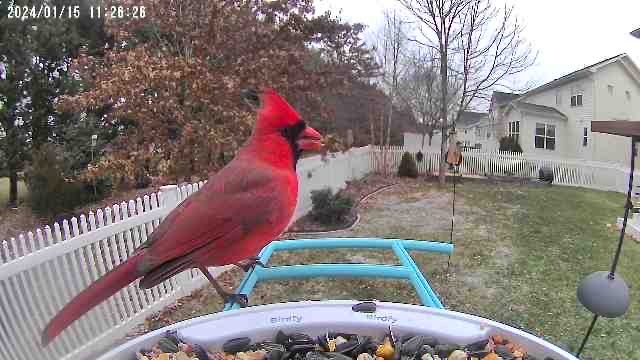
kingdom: Animalia
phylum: Chordata
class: Aves
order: Passeriformes
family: Cardinalidae
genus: Cardinalis
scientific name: Cardinalis cardinalis
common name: Northern cardinal
